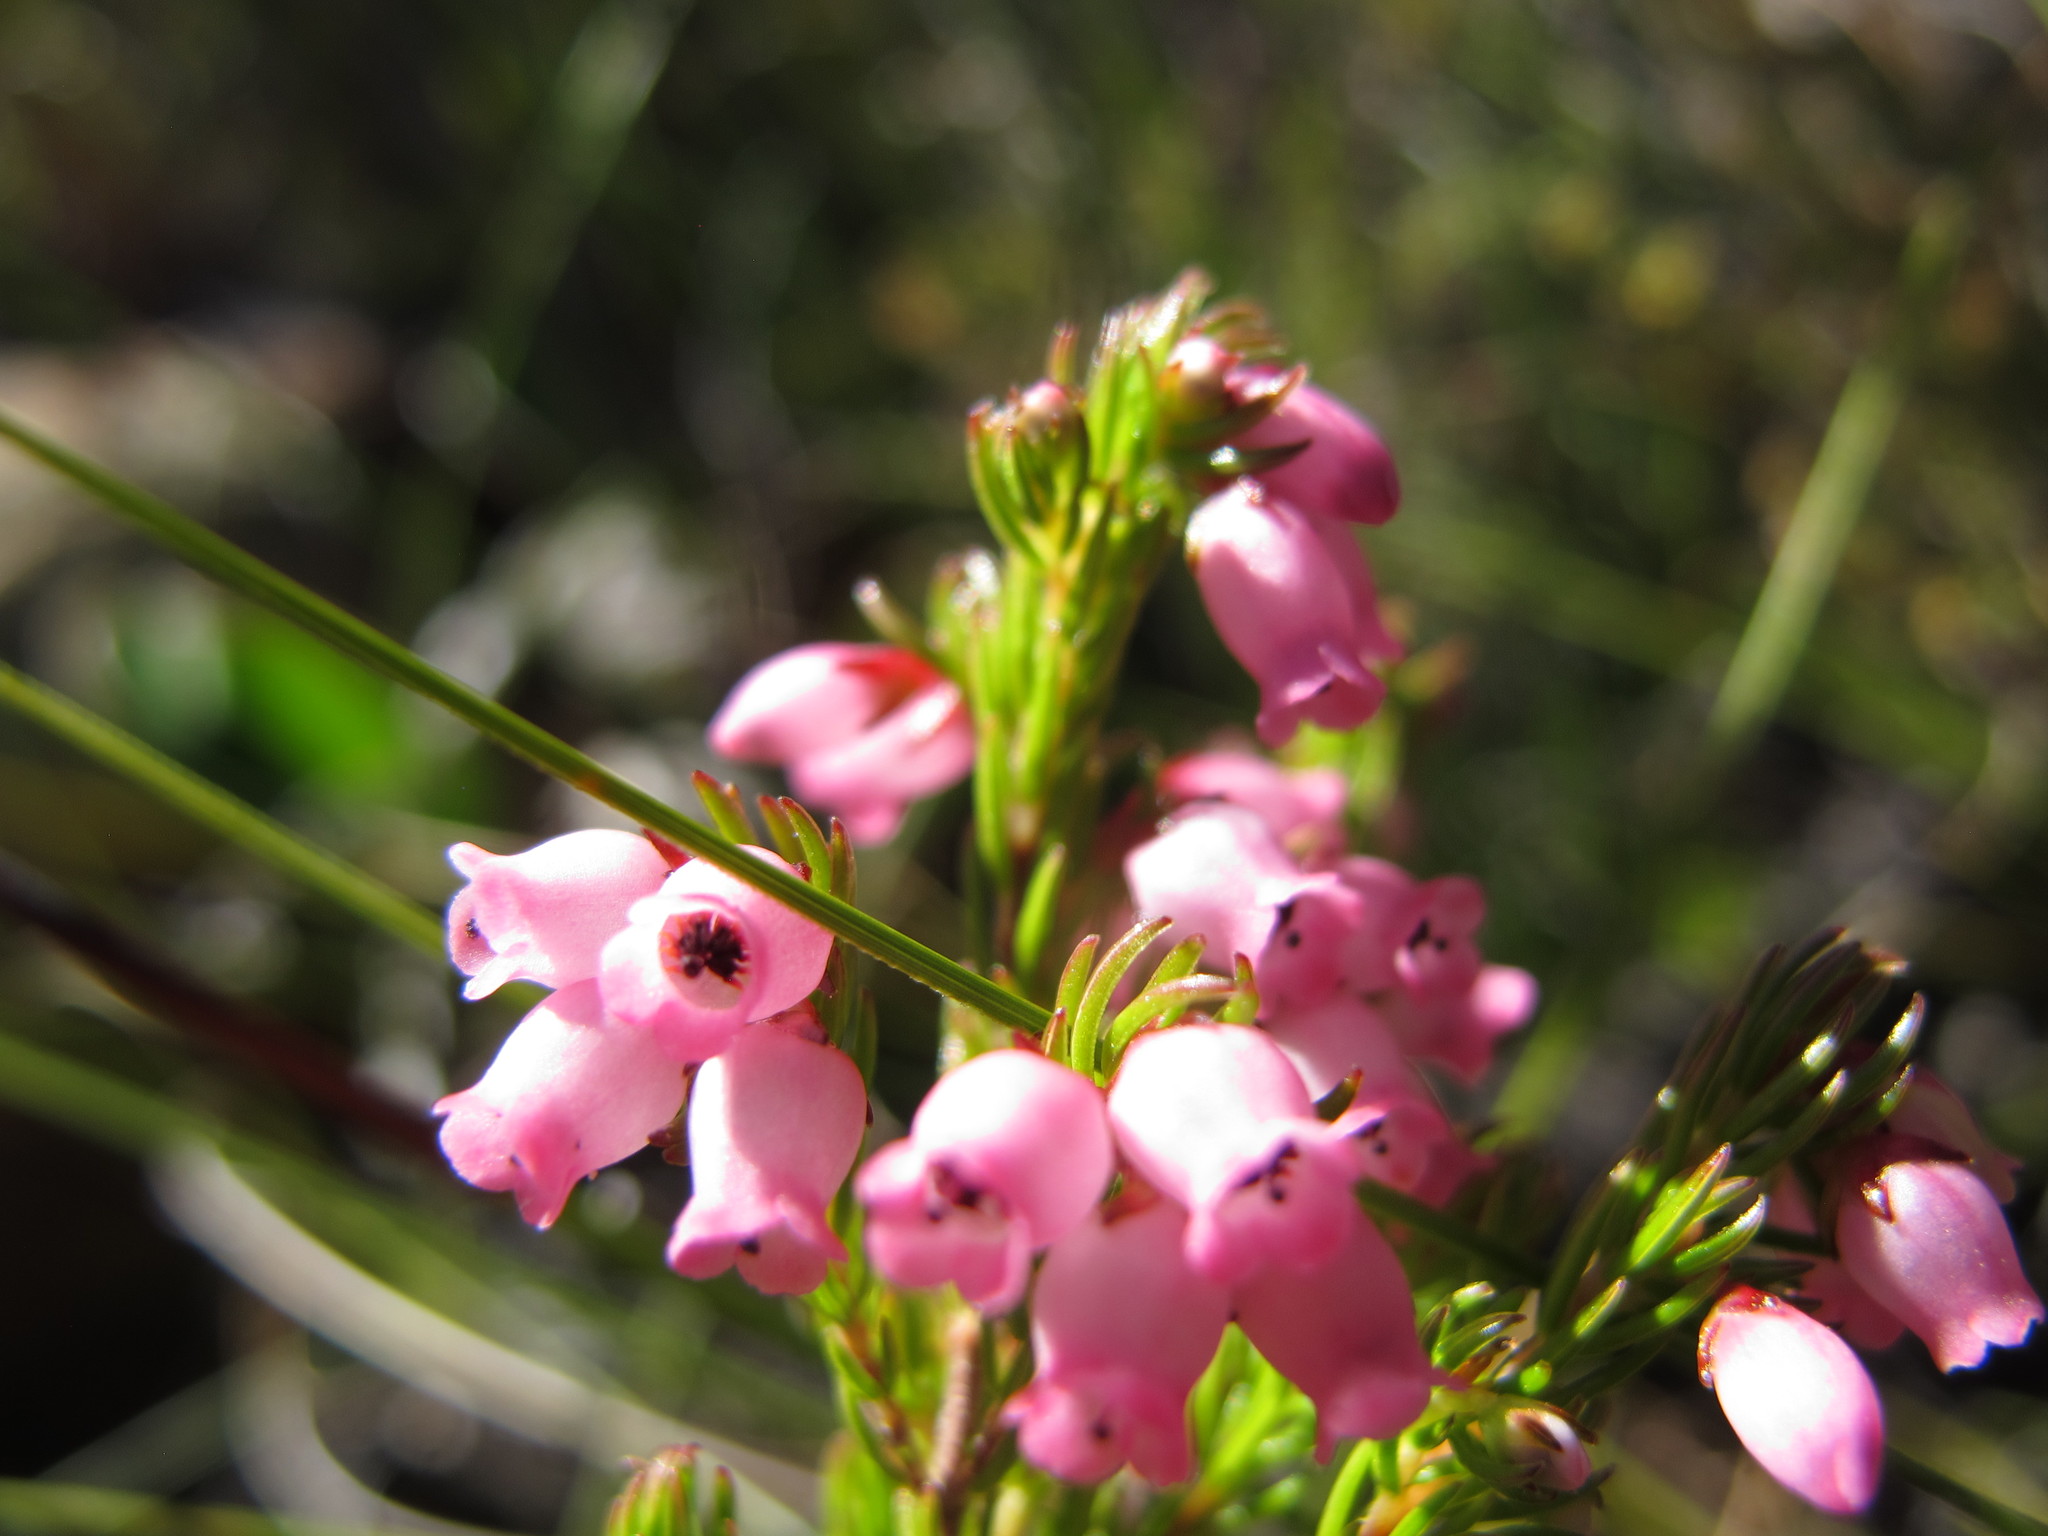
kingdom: Plantae
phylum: Tracheophyta
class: Magnoliopsida
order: Ericales
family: Ericaceae
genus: Erica
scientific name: Erica tenella
